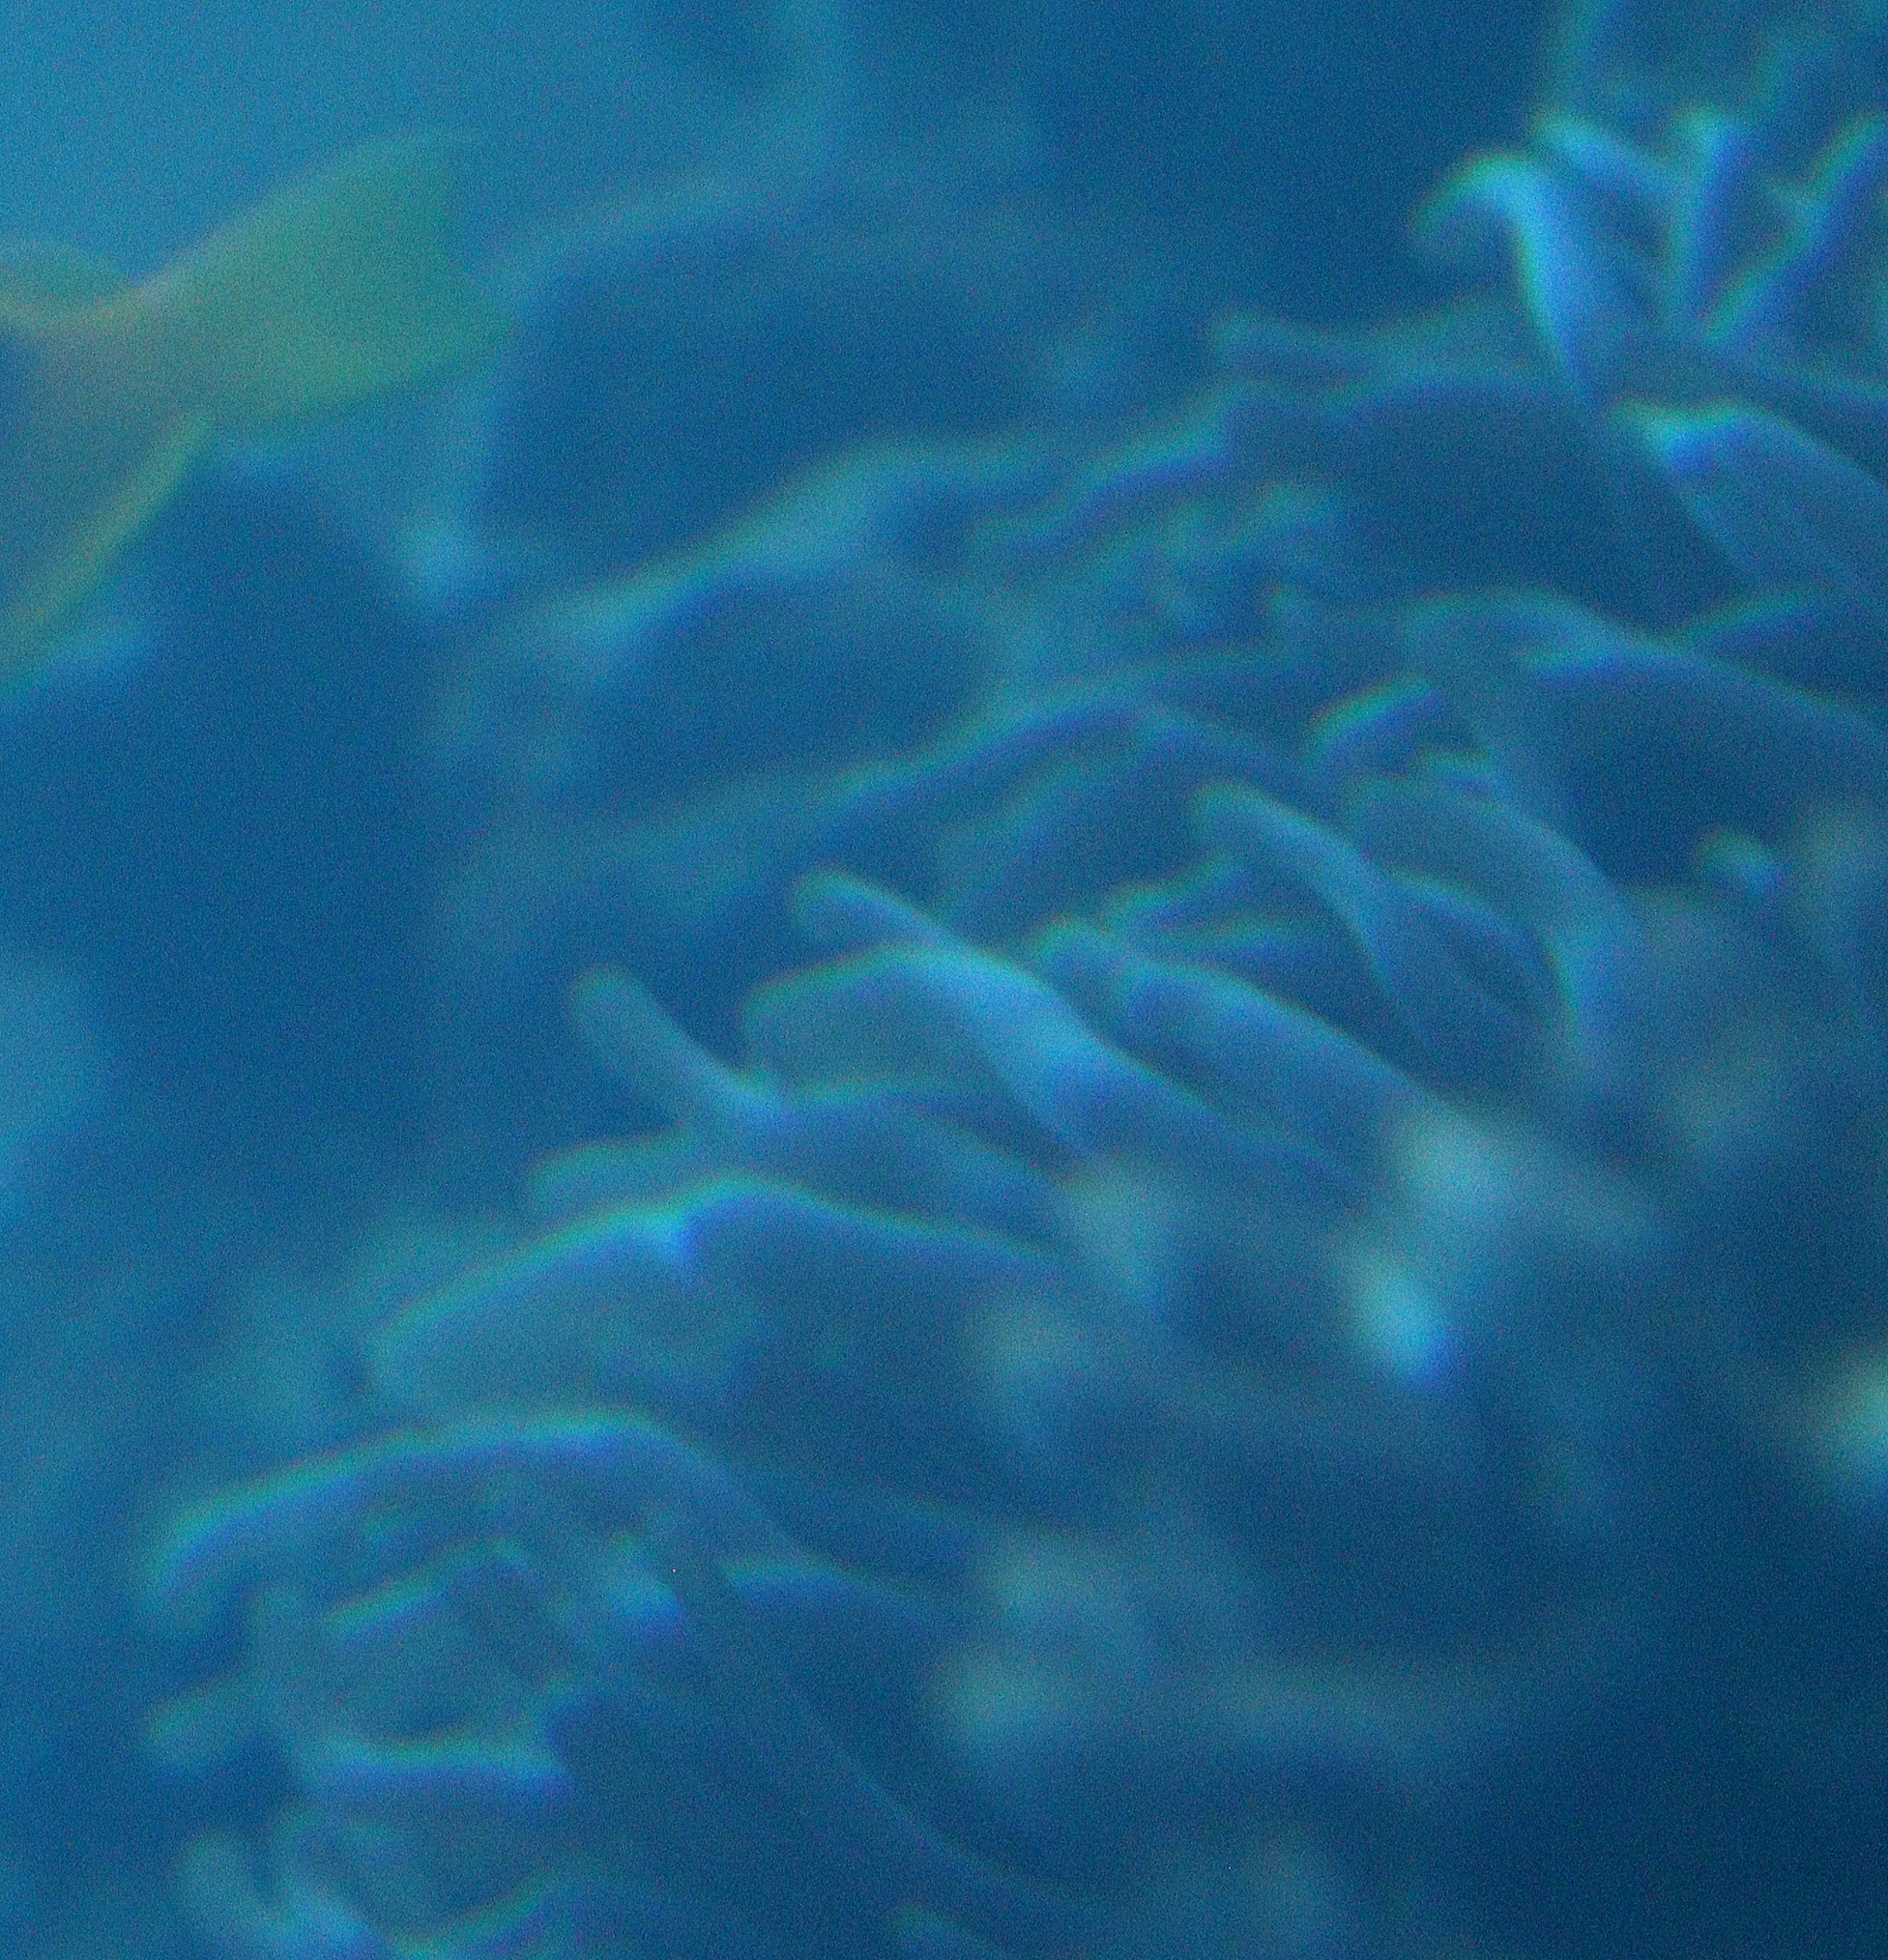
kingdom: Animalia
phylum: Cnidaria
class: Anthozoa
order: Actiniaria
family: Actiniidae
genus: Entacmaea
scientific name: Entacmaea quadricolor
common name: Bulb tentacle sea anemone
